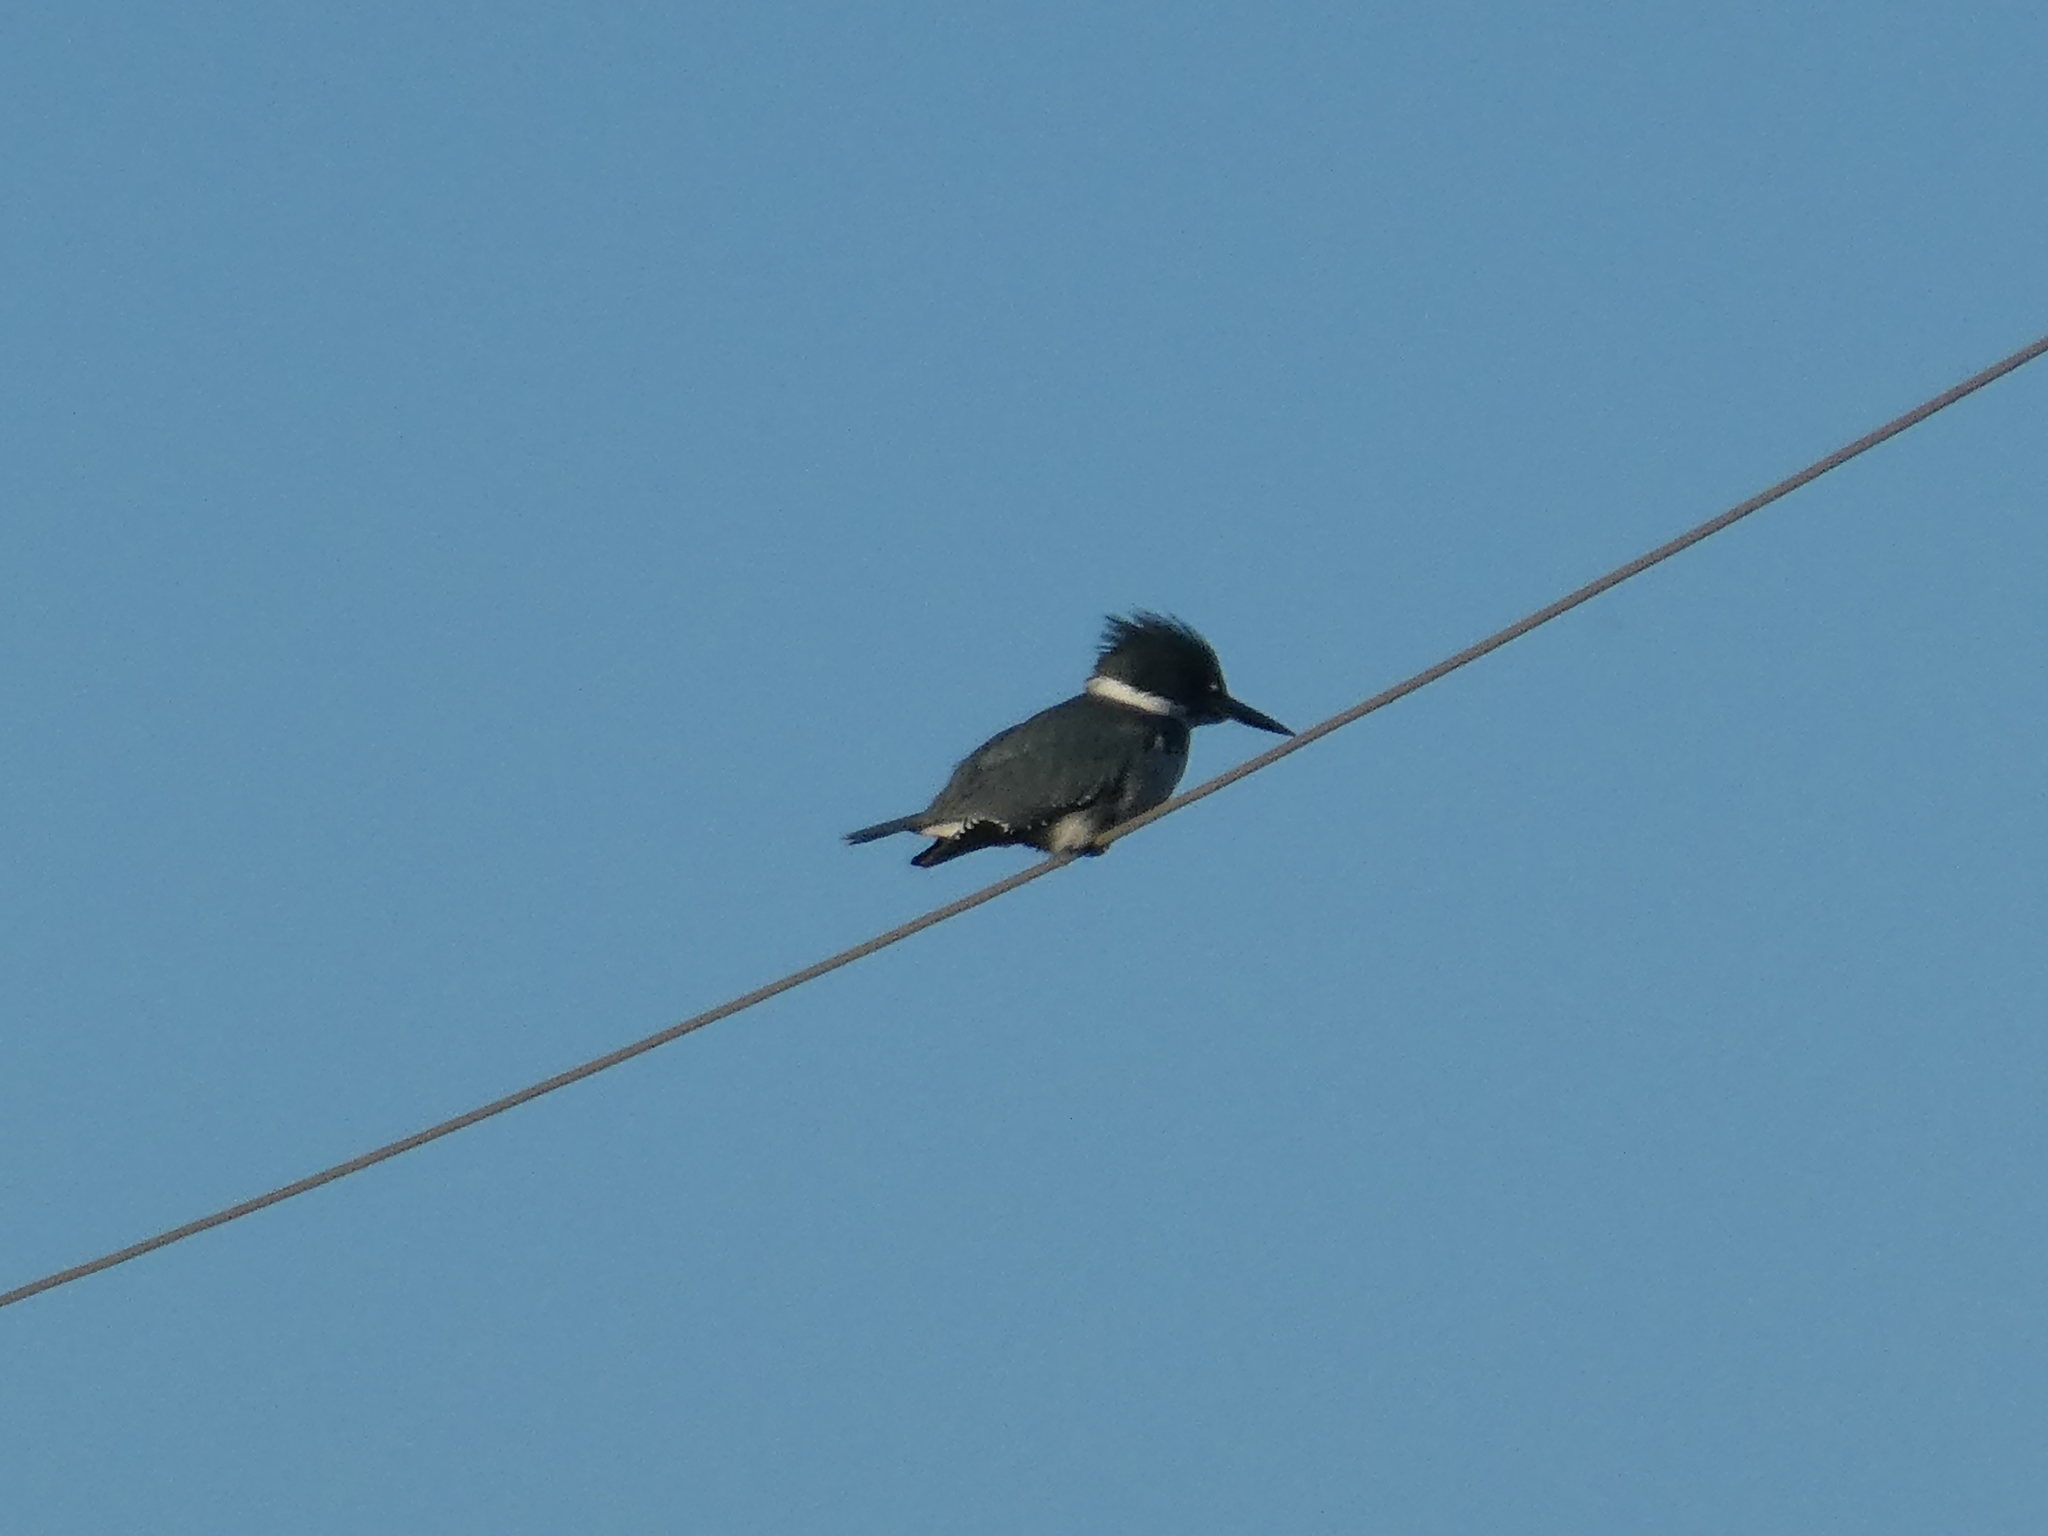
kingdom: Animalia
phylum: Chordata
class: Aves
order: Coraciiformes
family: Alcedinidae
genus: Megaceryle
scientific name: Megaceryle alcyon
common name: Belted kingfisher
